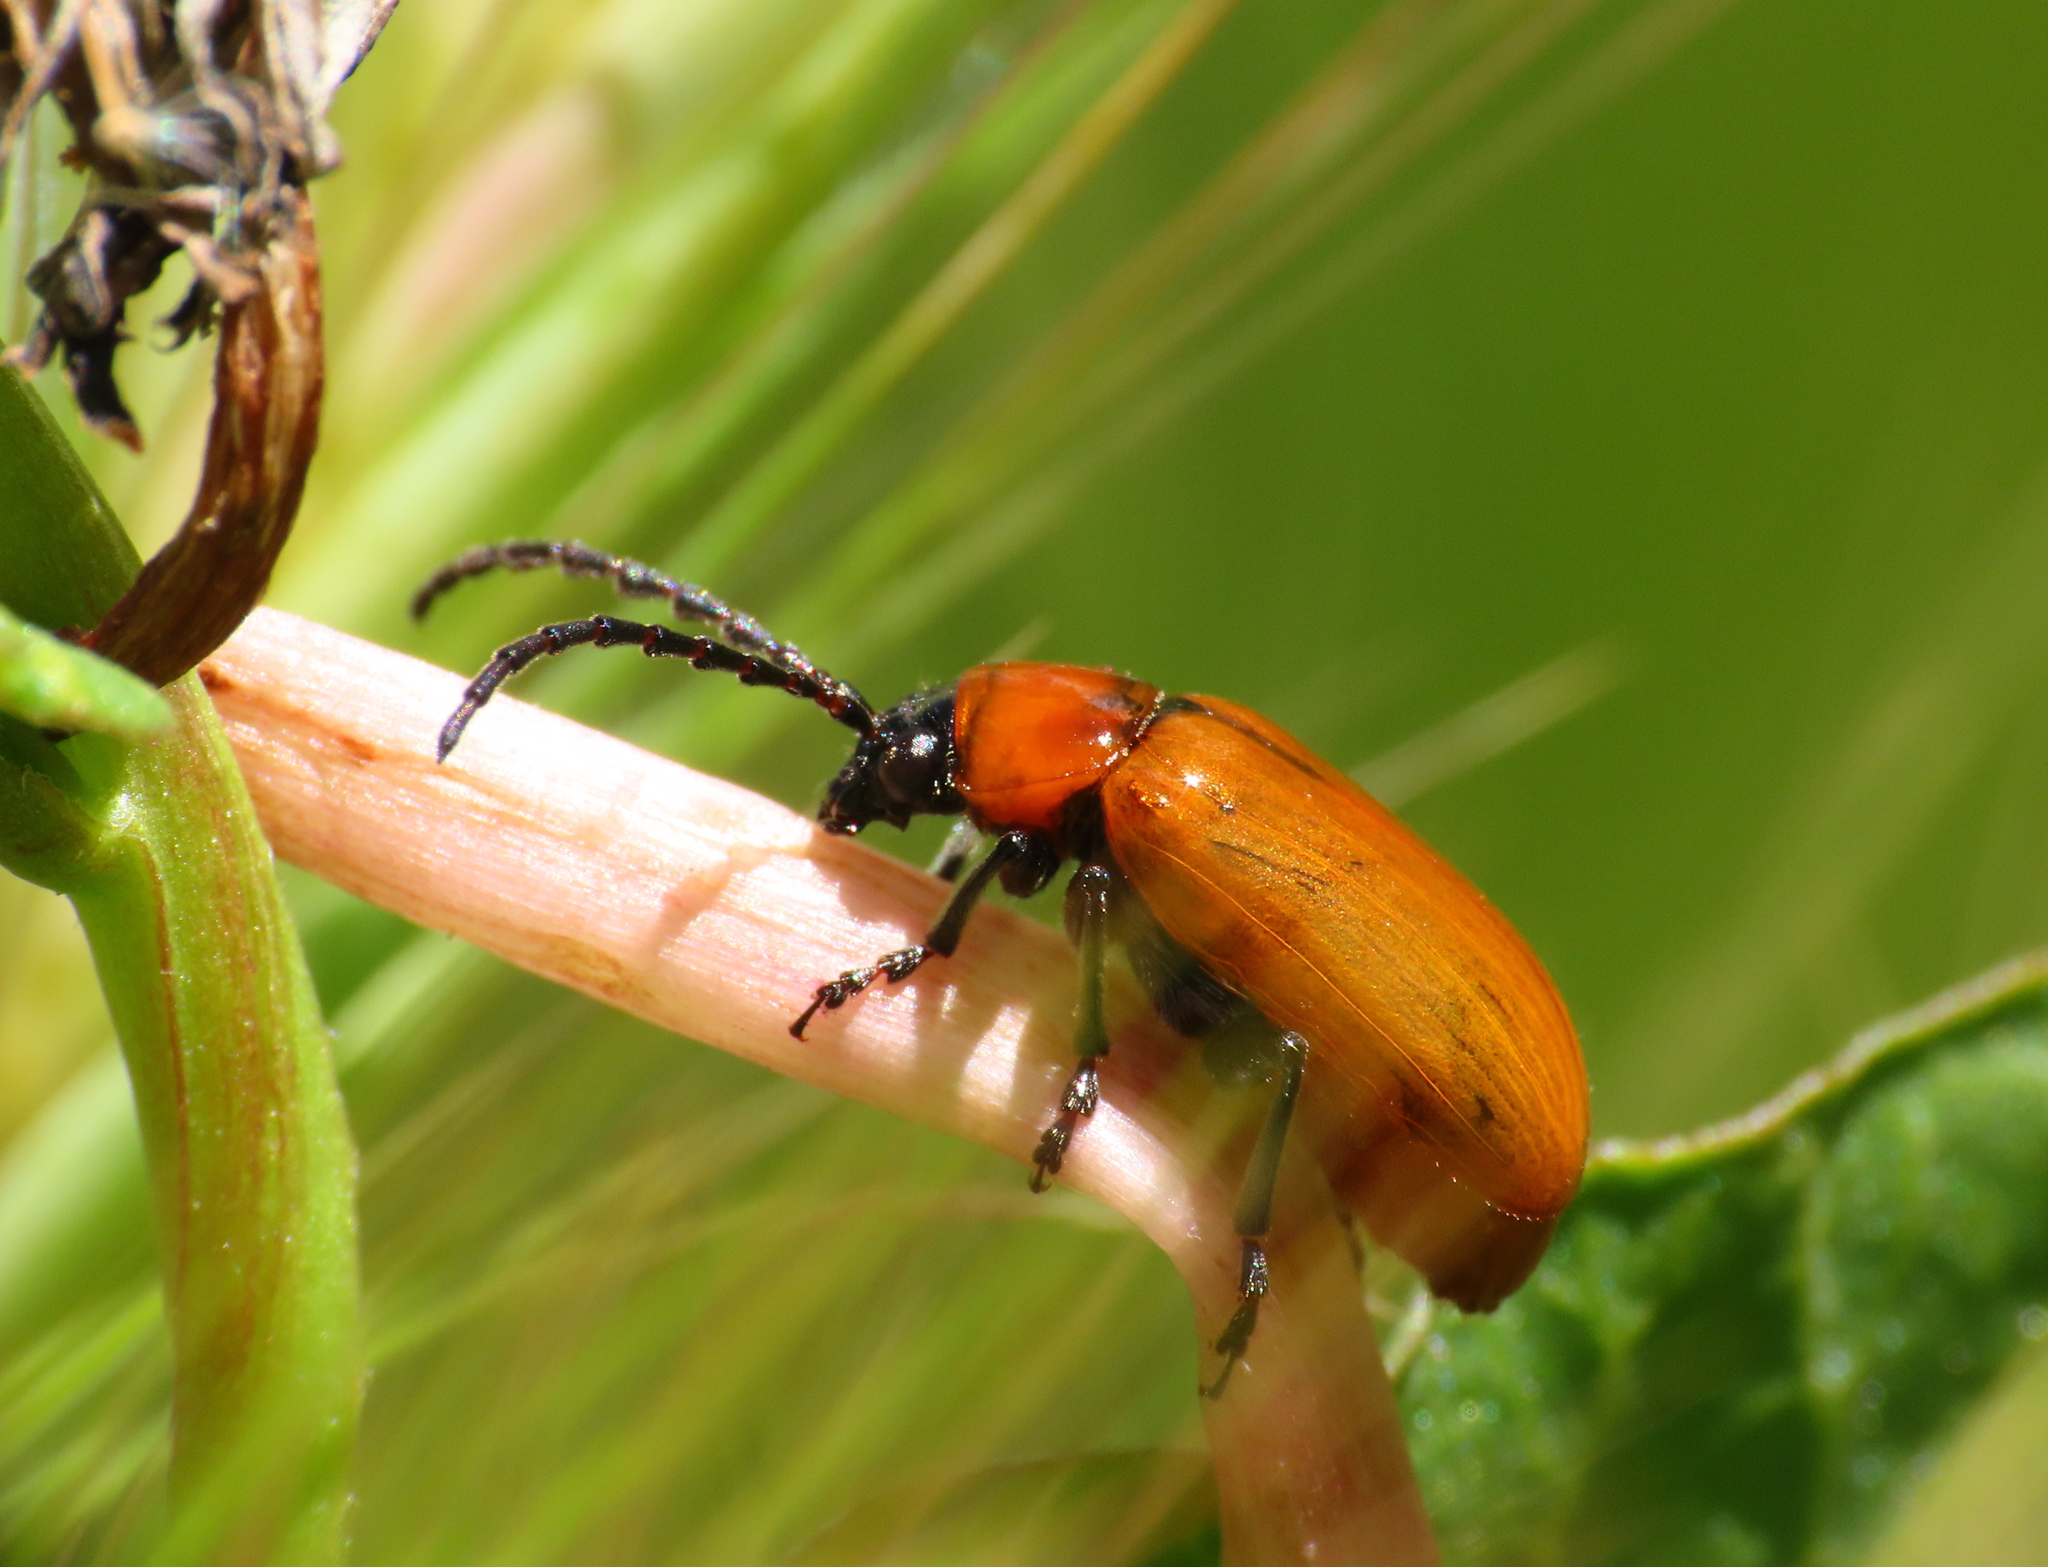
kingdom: Animalia
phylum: Arthropoda
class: Insecta
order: Coleoptera
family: Chrysomelidae
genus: Exosoma
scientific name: Exosoma lusitanicum
